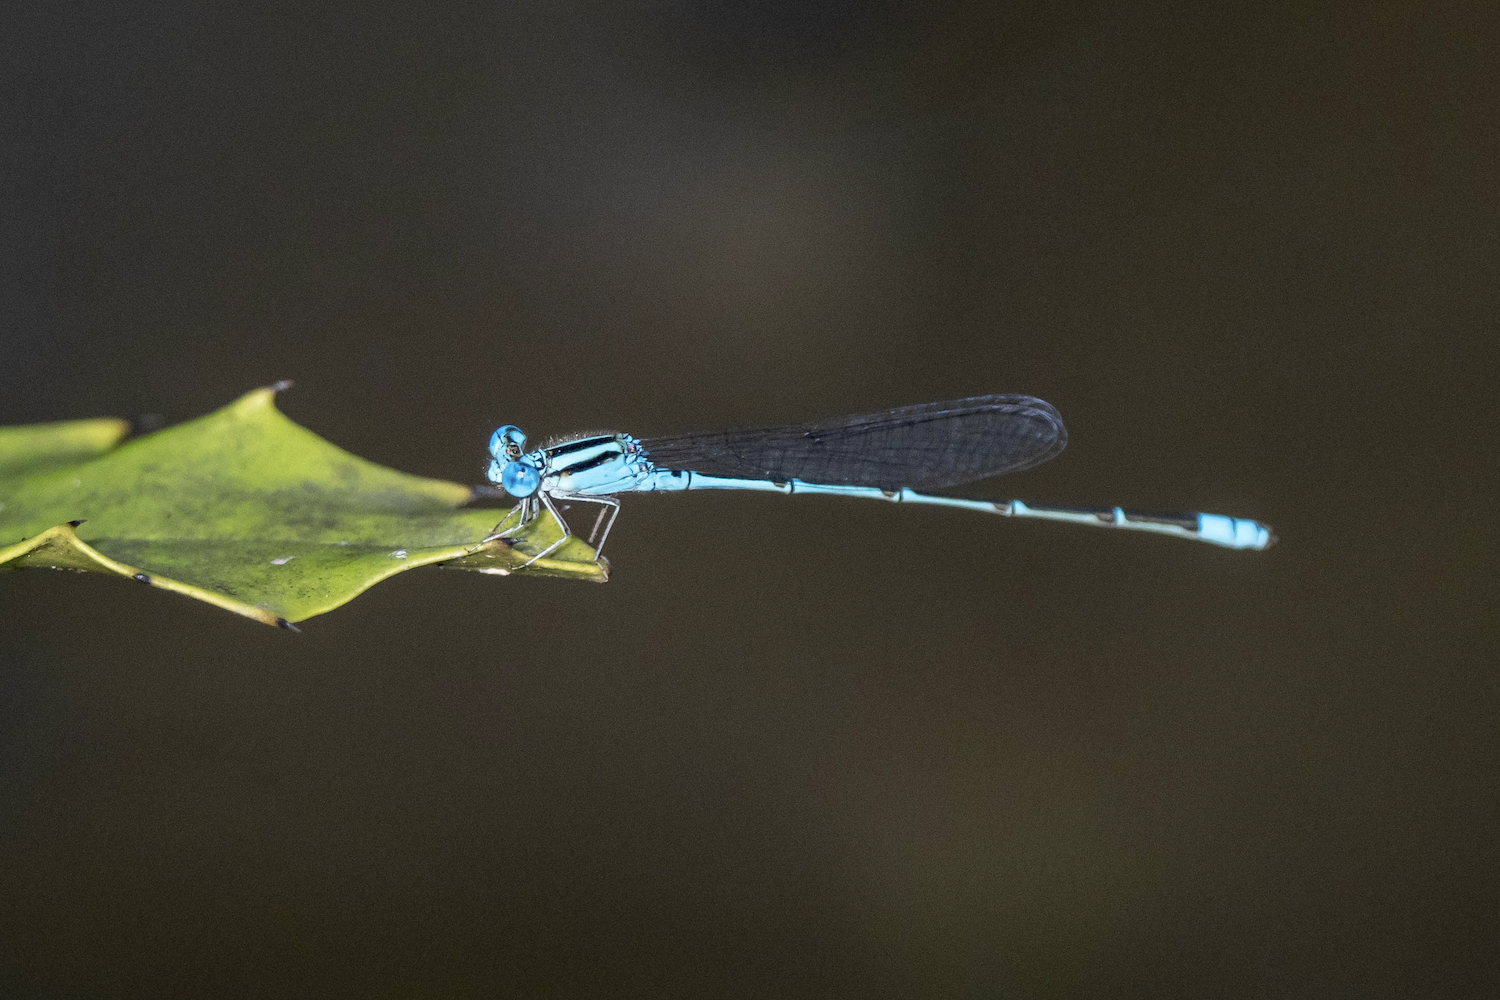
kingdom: Animalia
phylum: Arthropoda
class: Insecta
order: Odonata
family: Coenagrionidae
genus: Pseudagrion
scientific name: Pseudagrion microcephalum
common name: Blue riverdamsel
